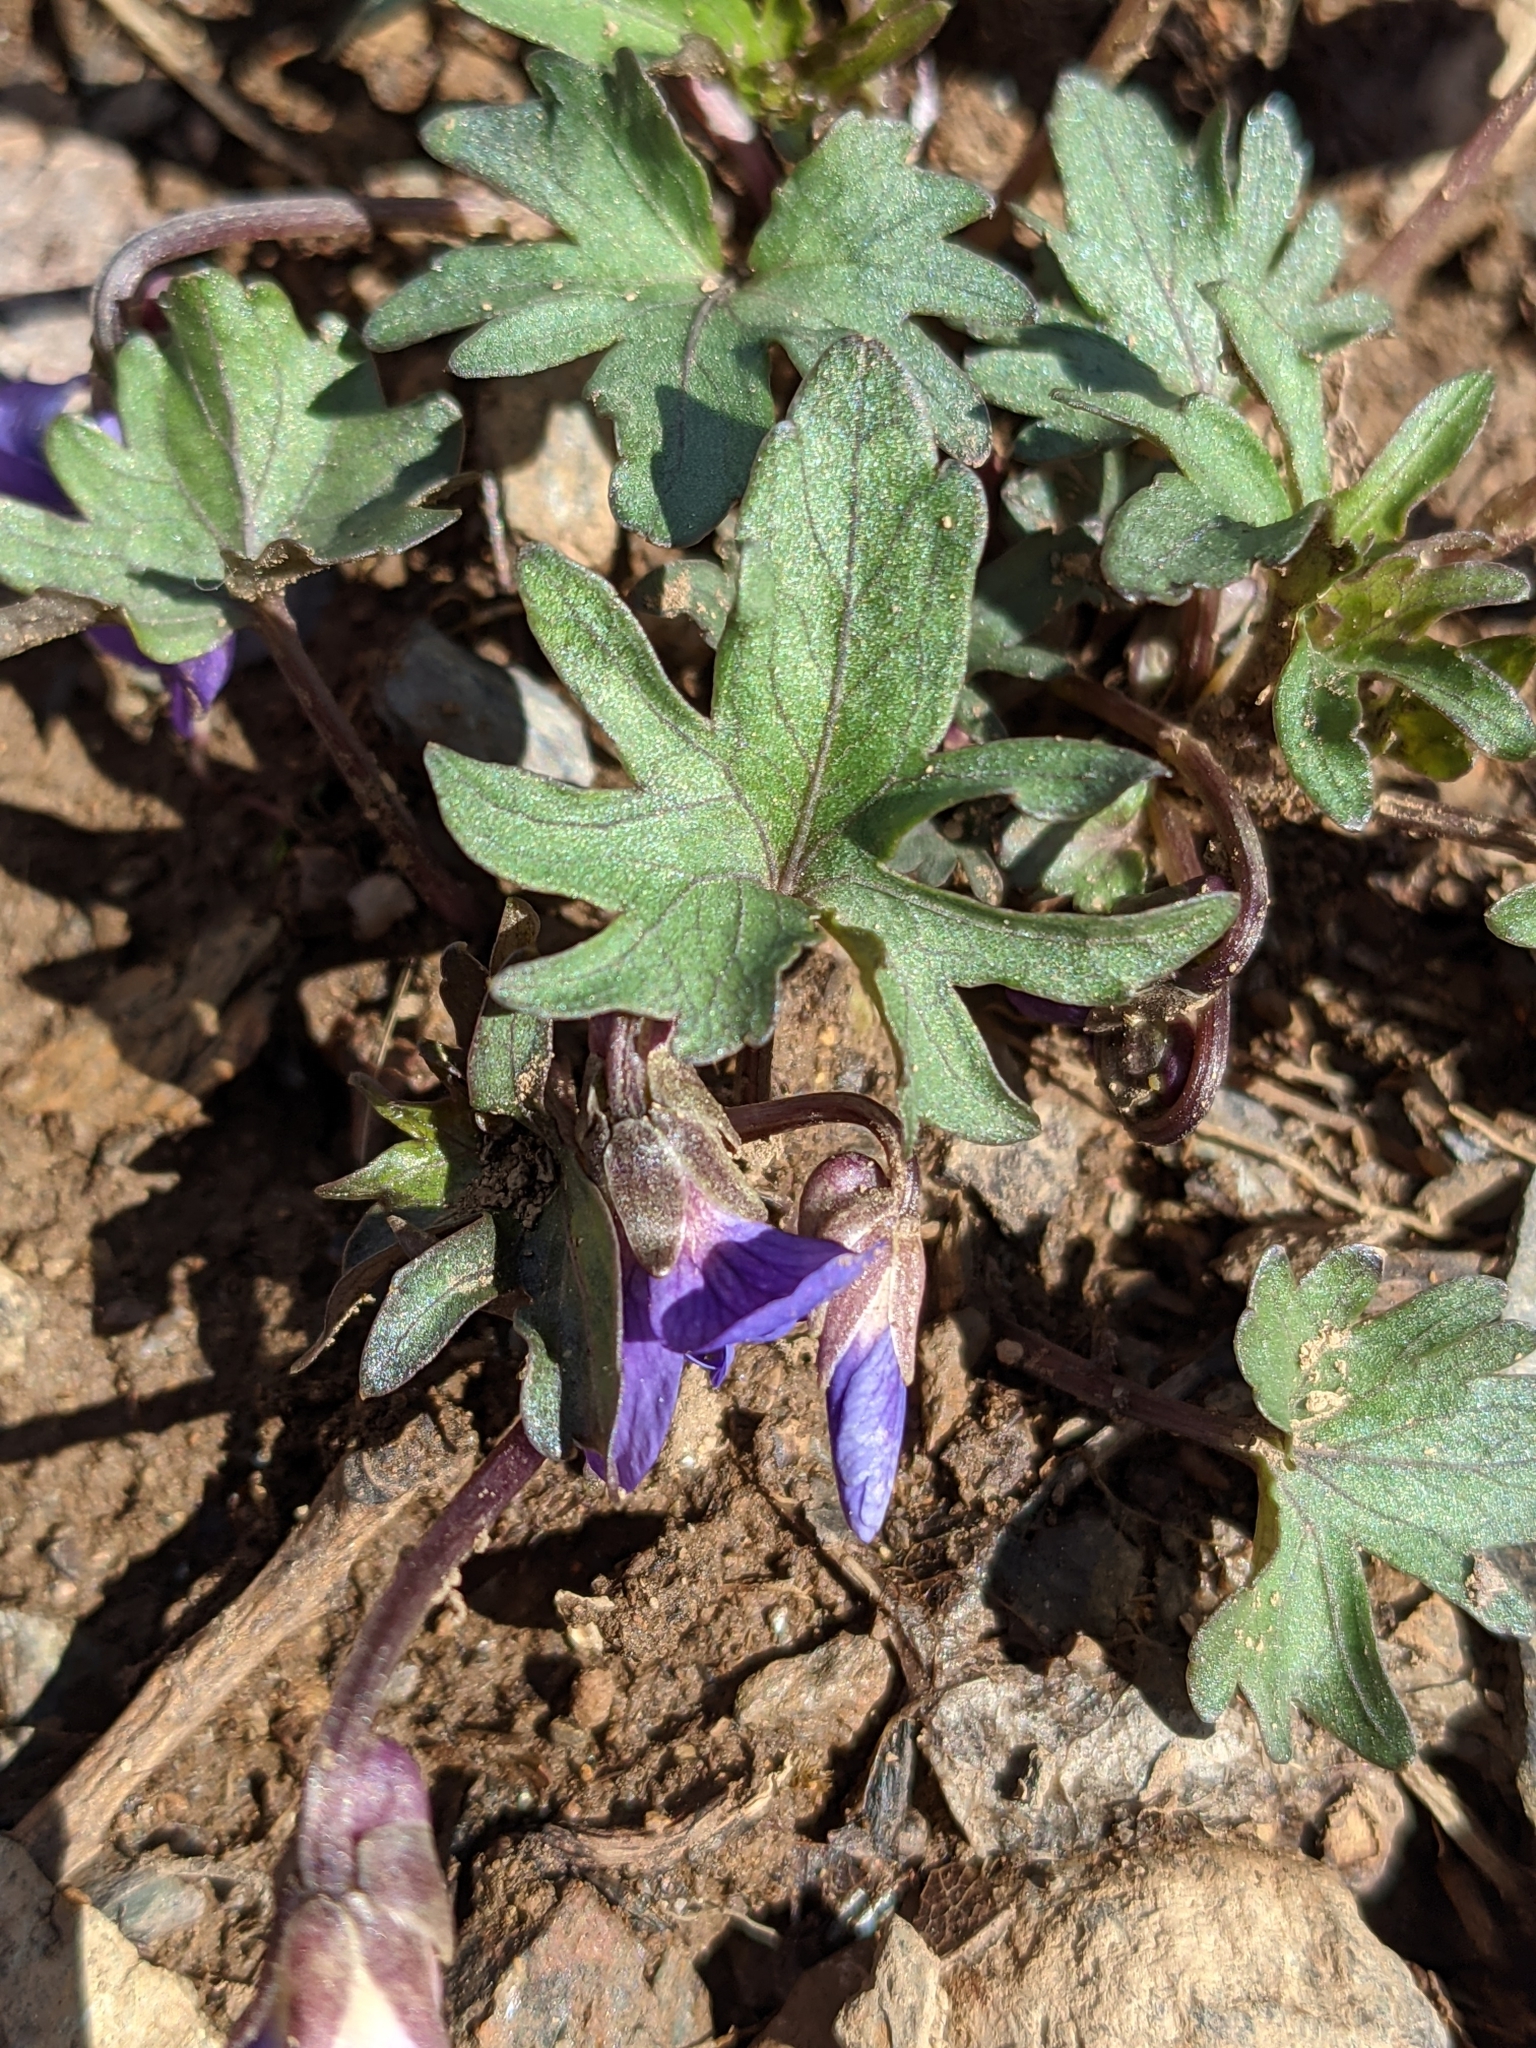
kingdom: Plantae
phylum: Tracheophyta
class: Magnoliopsida
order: Malpighiales
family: Violaceae
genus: Viola
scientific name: Viola pedata
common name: Pansy violet
